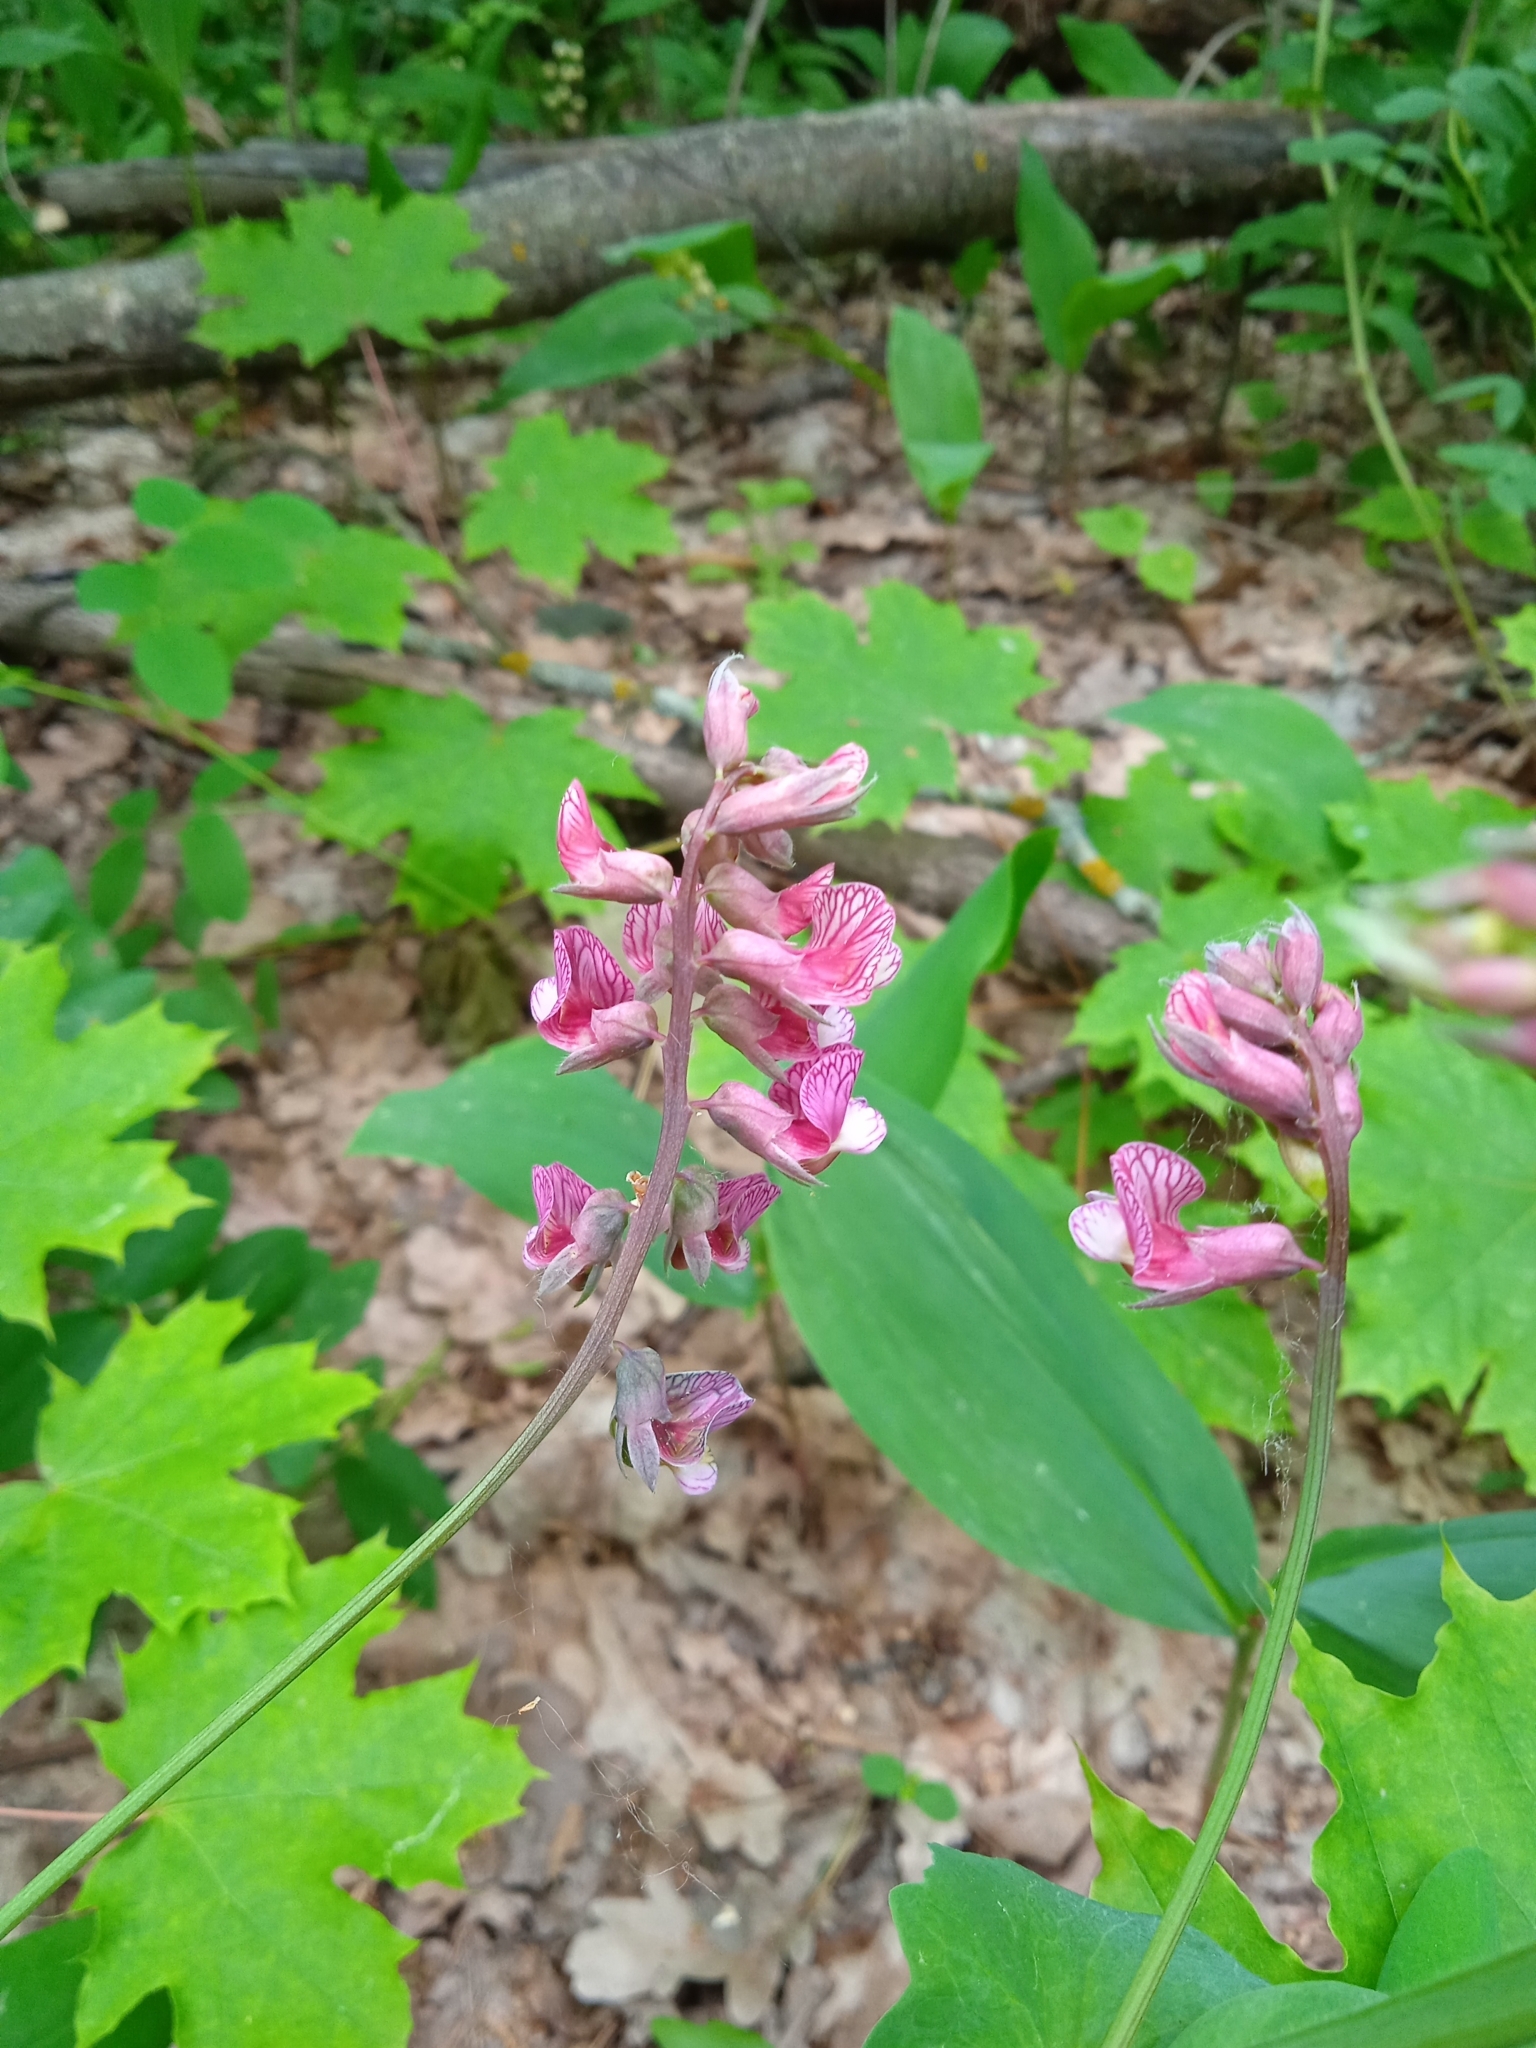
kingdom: Plantae
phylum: Tracheophyta
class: Magnoliopsida
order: Fabales
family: Fabaceae
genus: Lathyrus
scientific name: Lathyrus pisiformis
